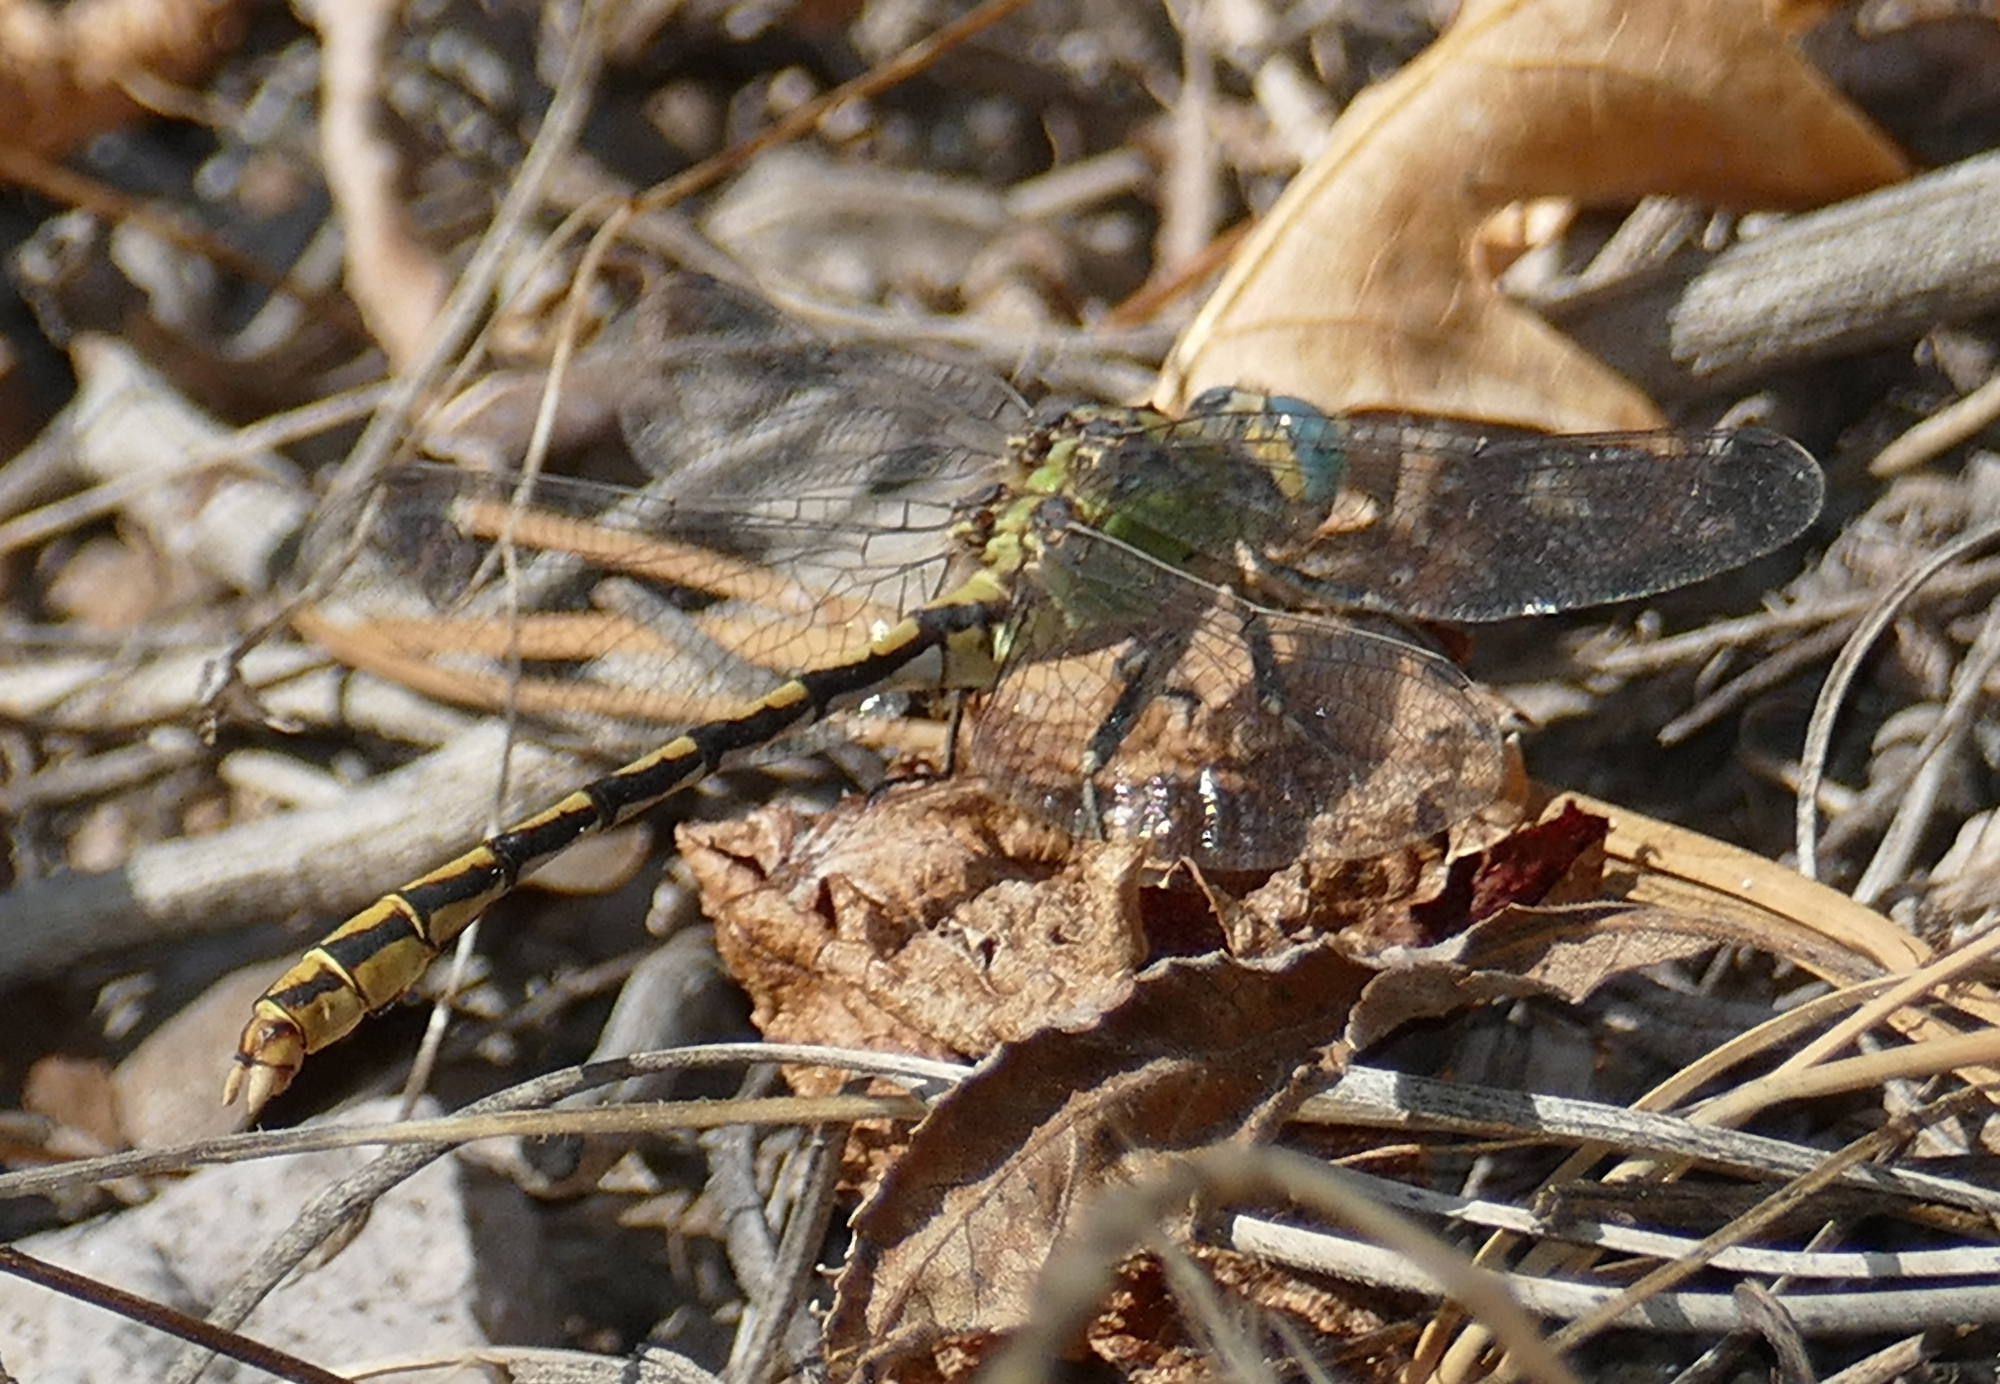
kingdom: Animalia
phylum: Arthropoda
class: Insecta
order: Odonata
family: Gomphidae
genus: Ophiogomphus
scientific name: Ophiogomphus arizonicus
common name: Arizona snaketail
